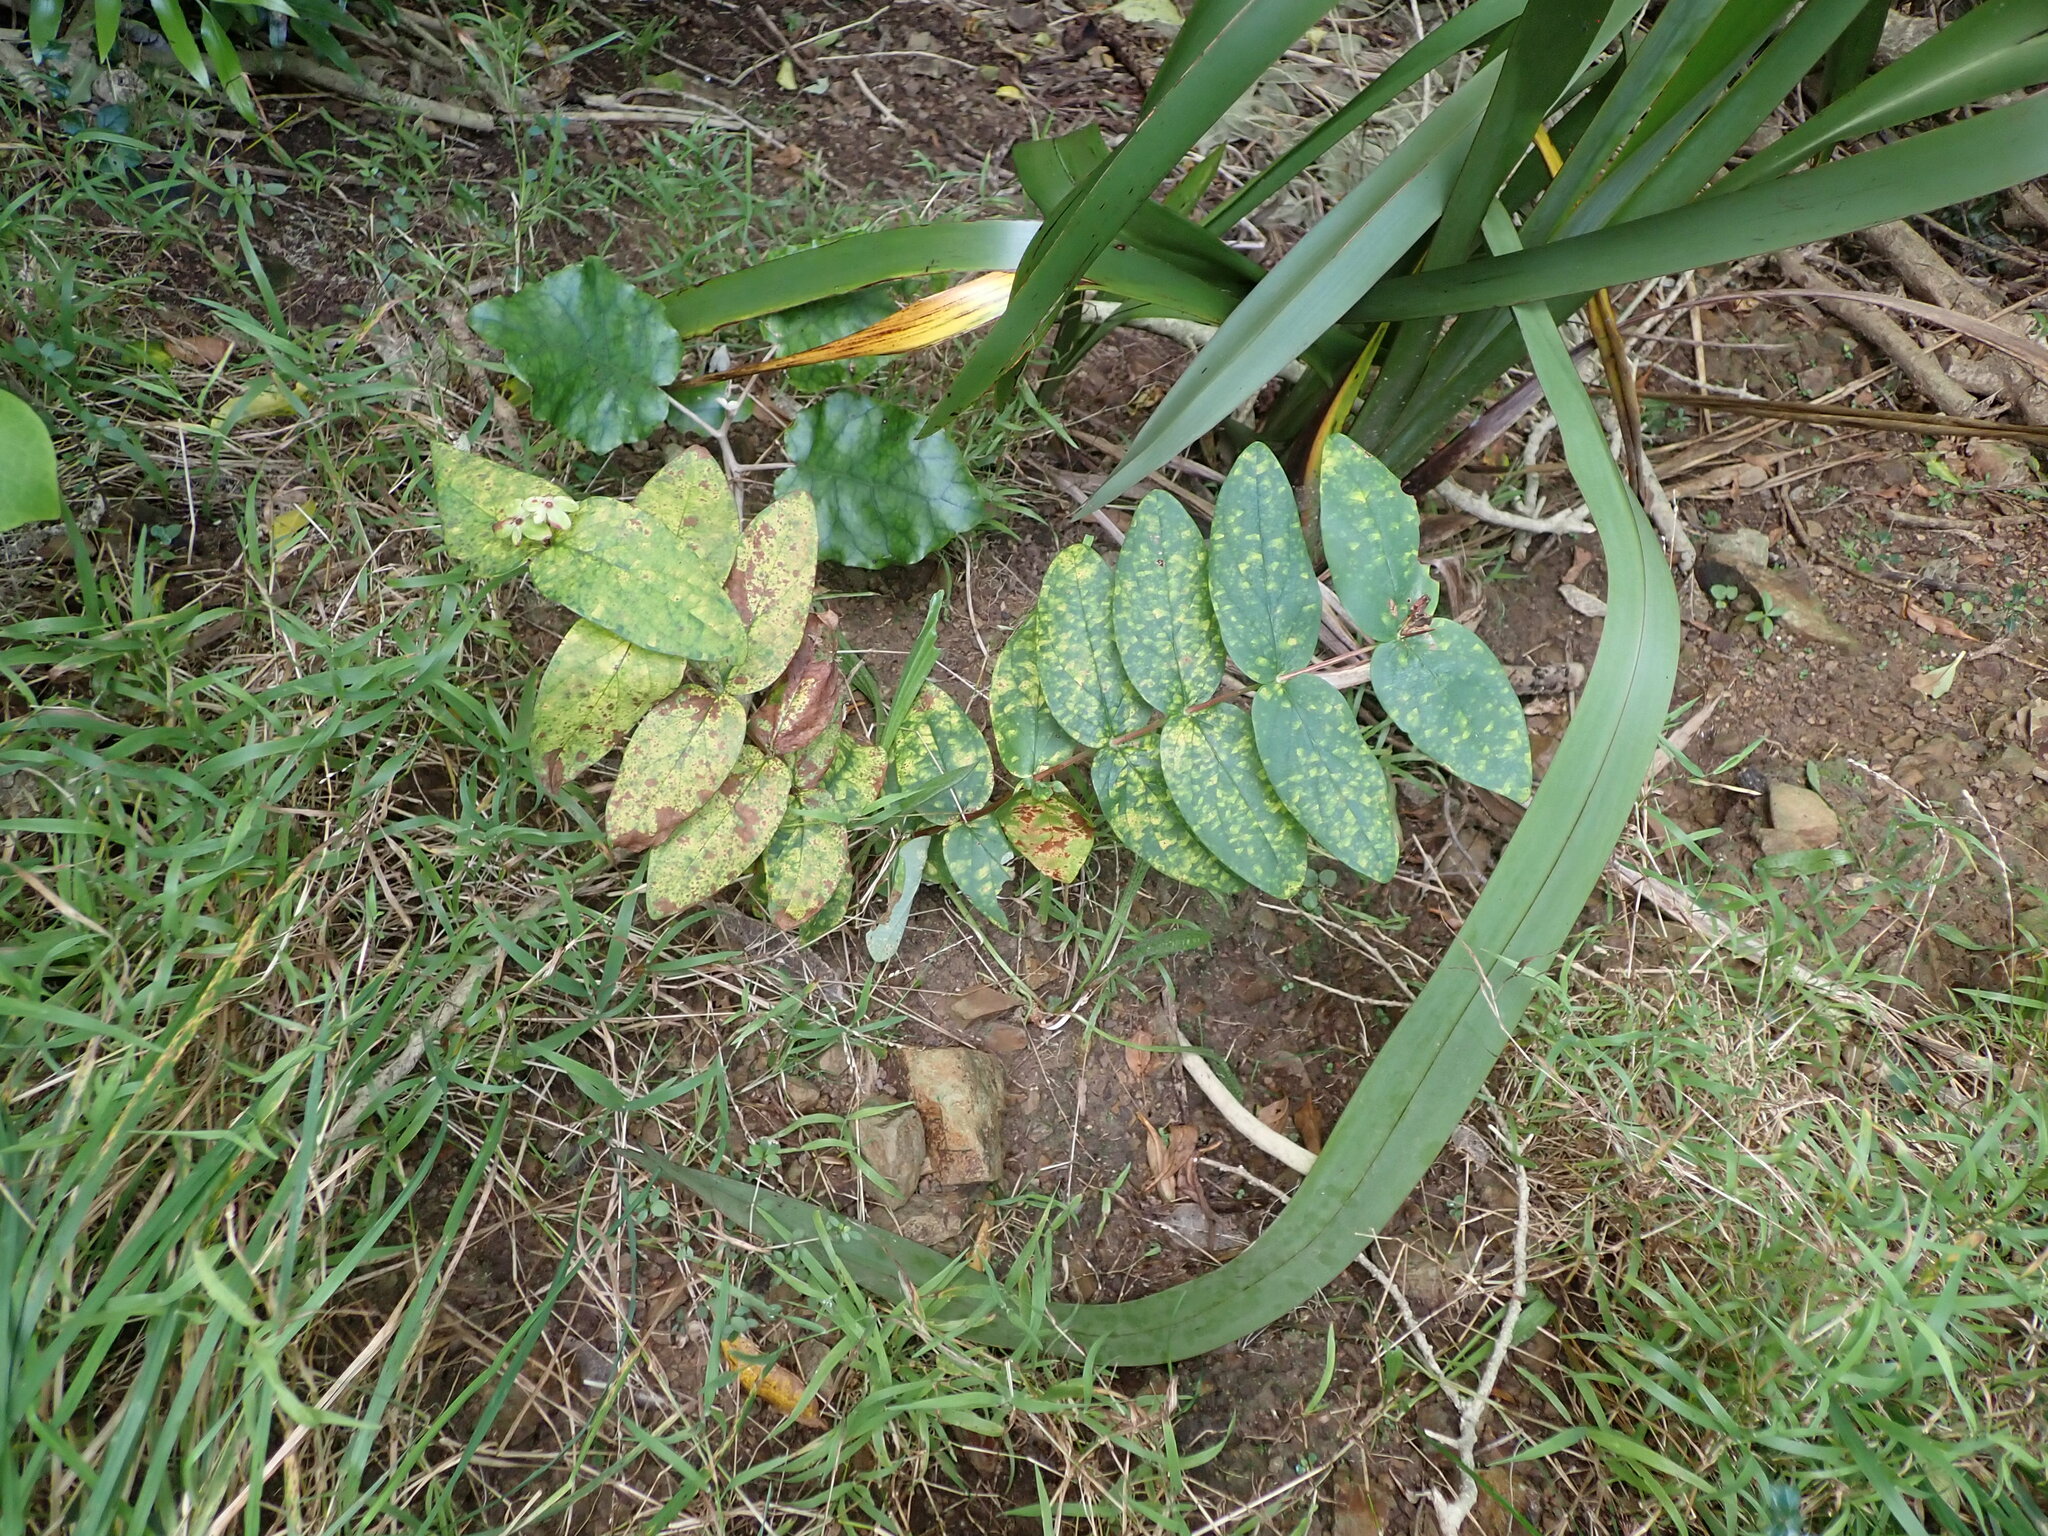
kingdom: Plantae
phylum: Tracheophyta
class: Magnoliopsida
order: Malpighiales
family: Hypericaceae
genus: Hypericum
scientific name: Hypericum androsaemum
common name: Sweet-amber
